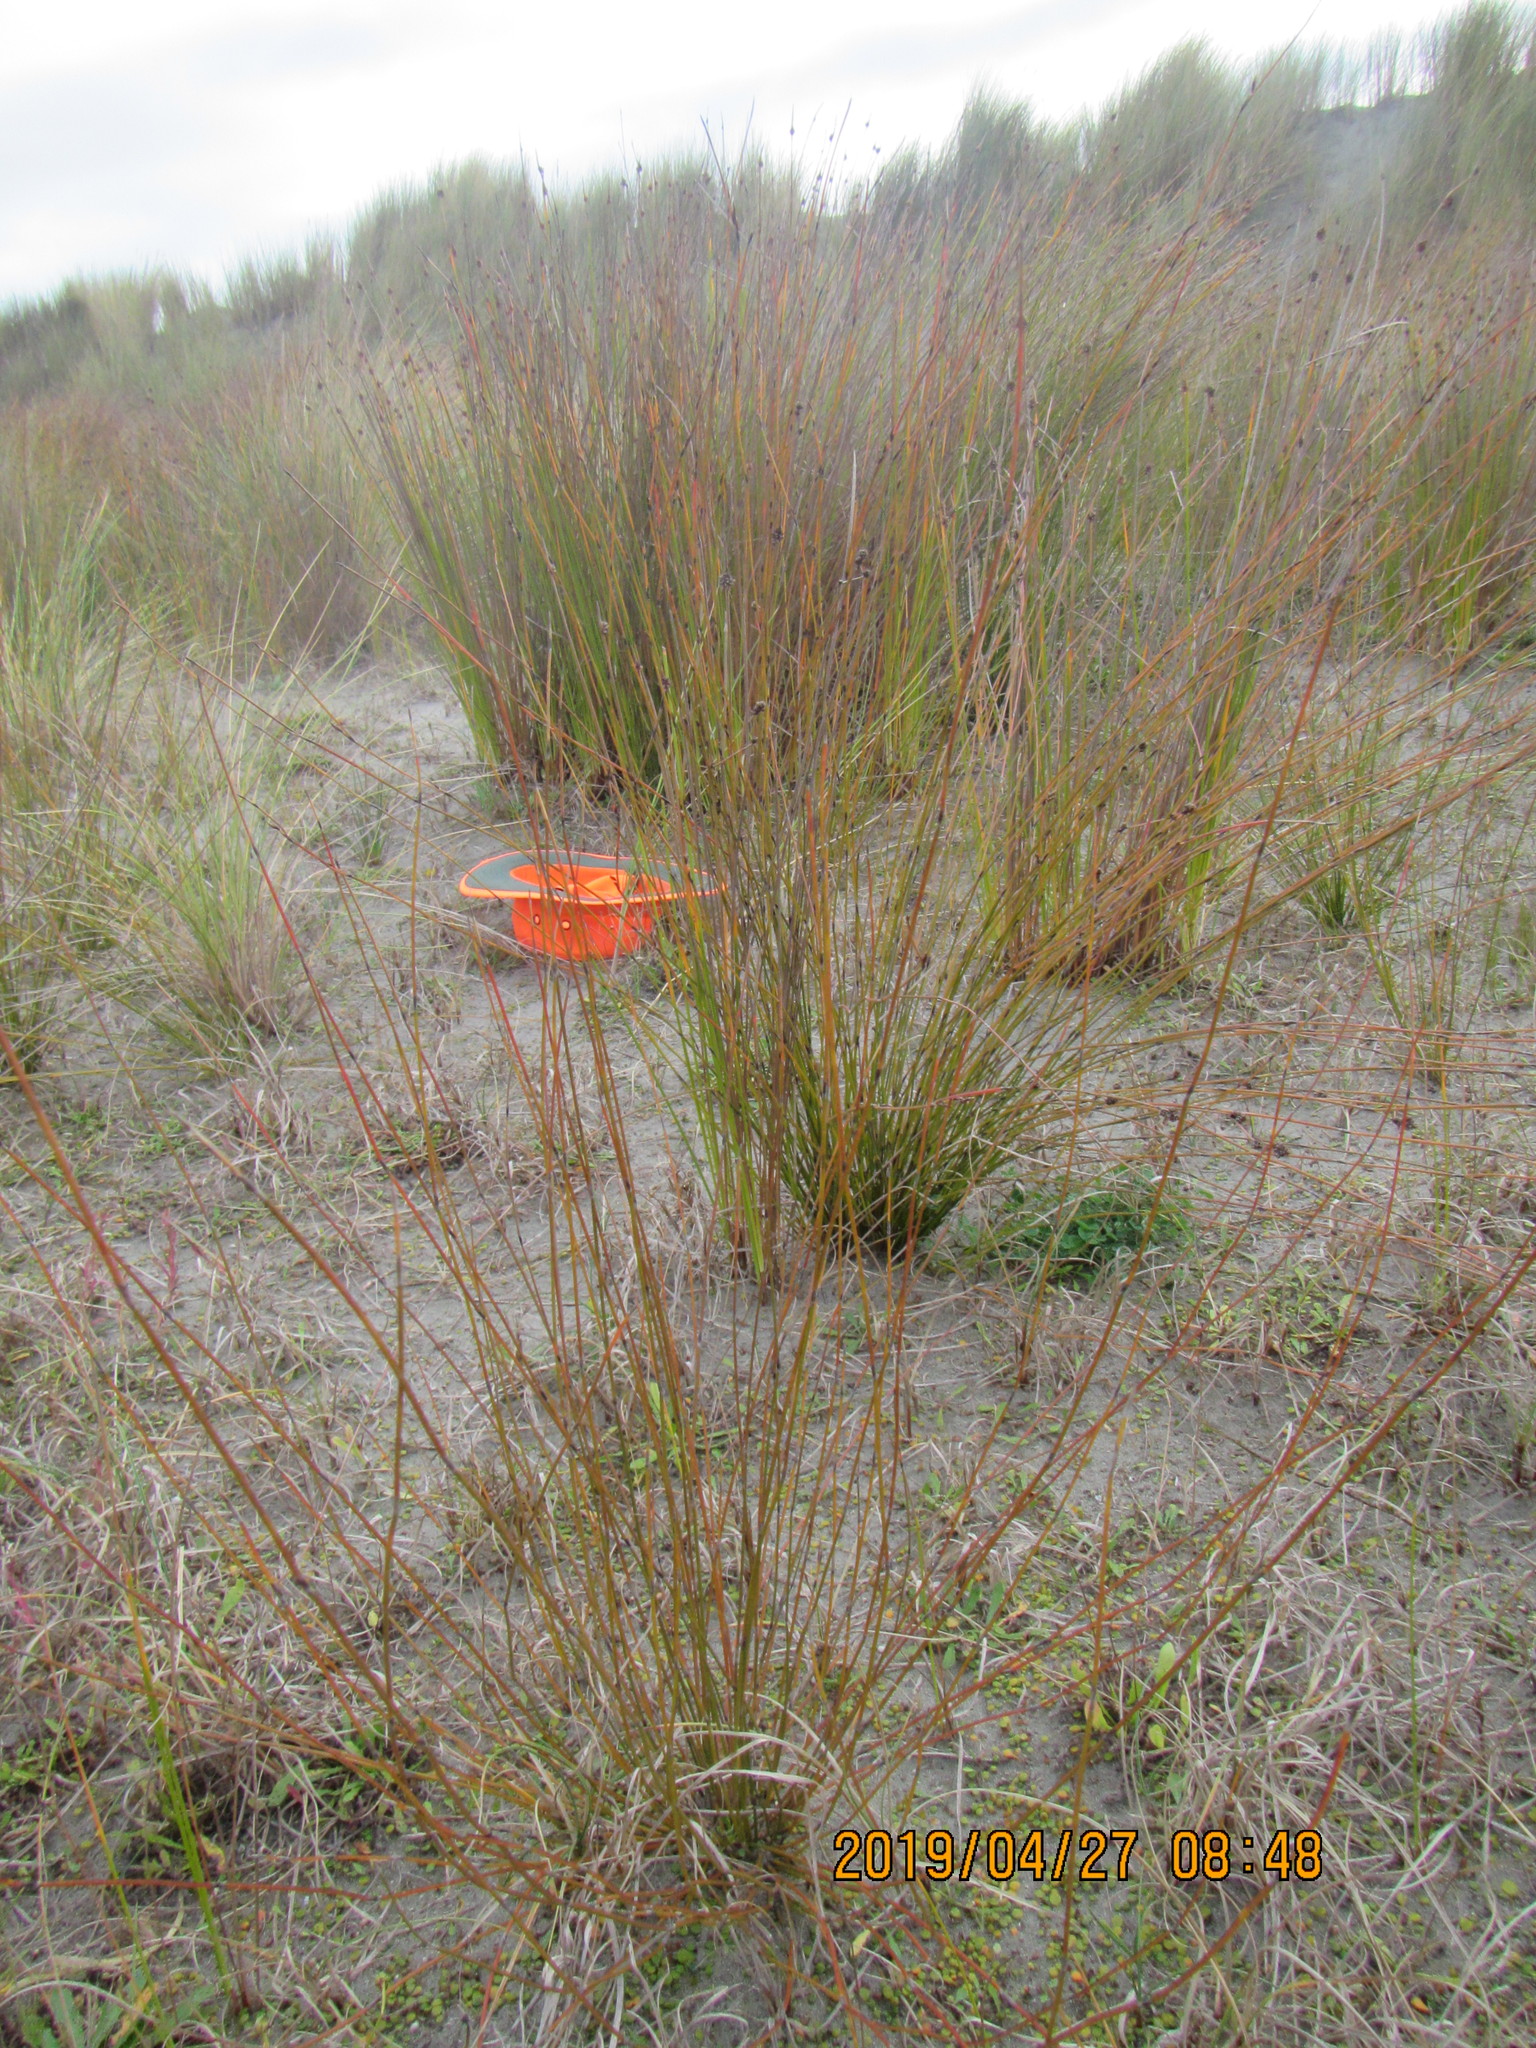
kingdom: Plantae
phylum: Tracheophyta
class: Liliopsida
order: Poales
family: Restionaceae
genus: Apodasmia
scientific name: Apodasmia similis
